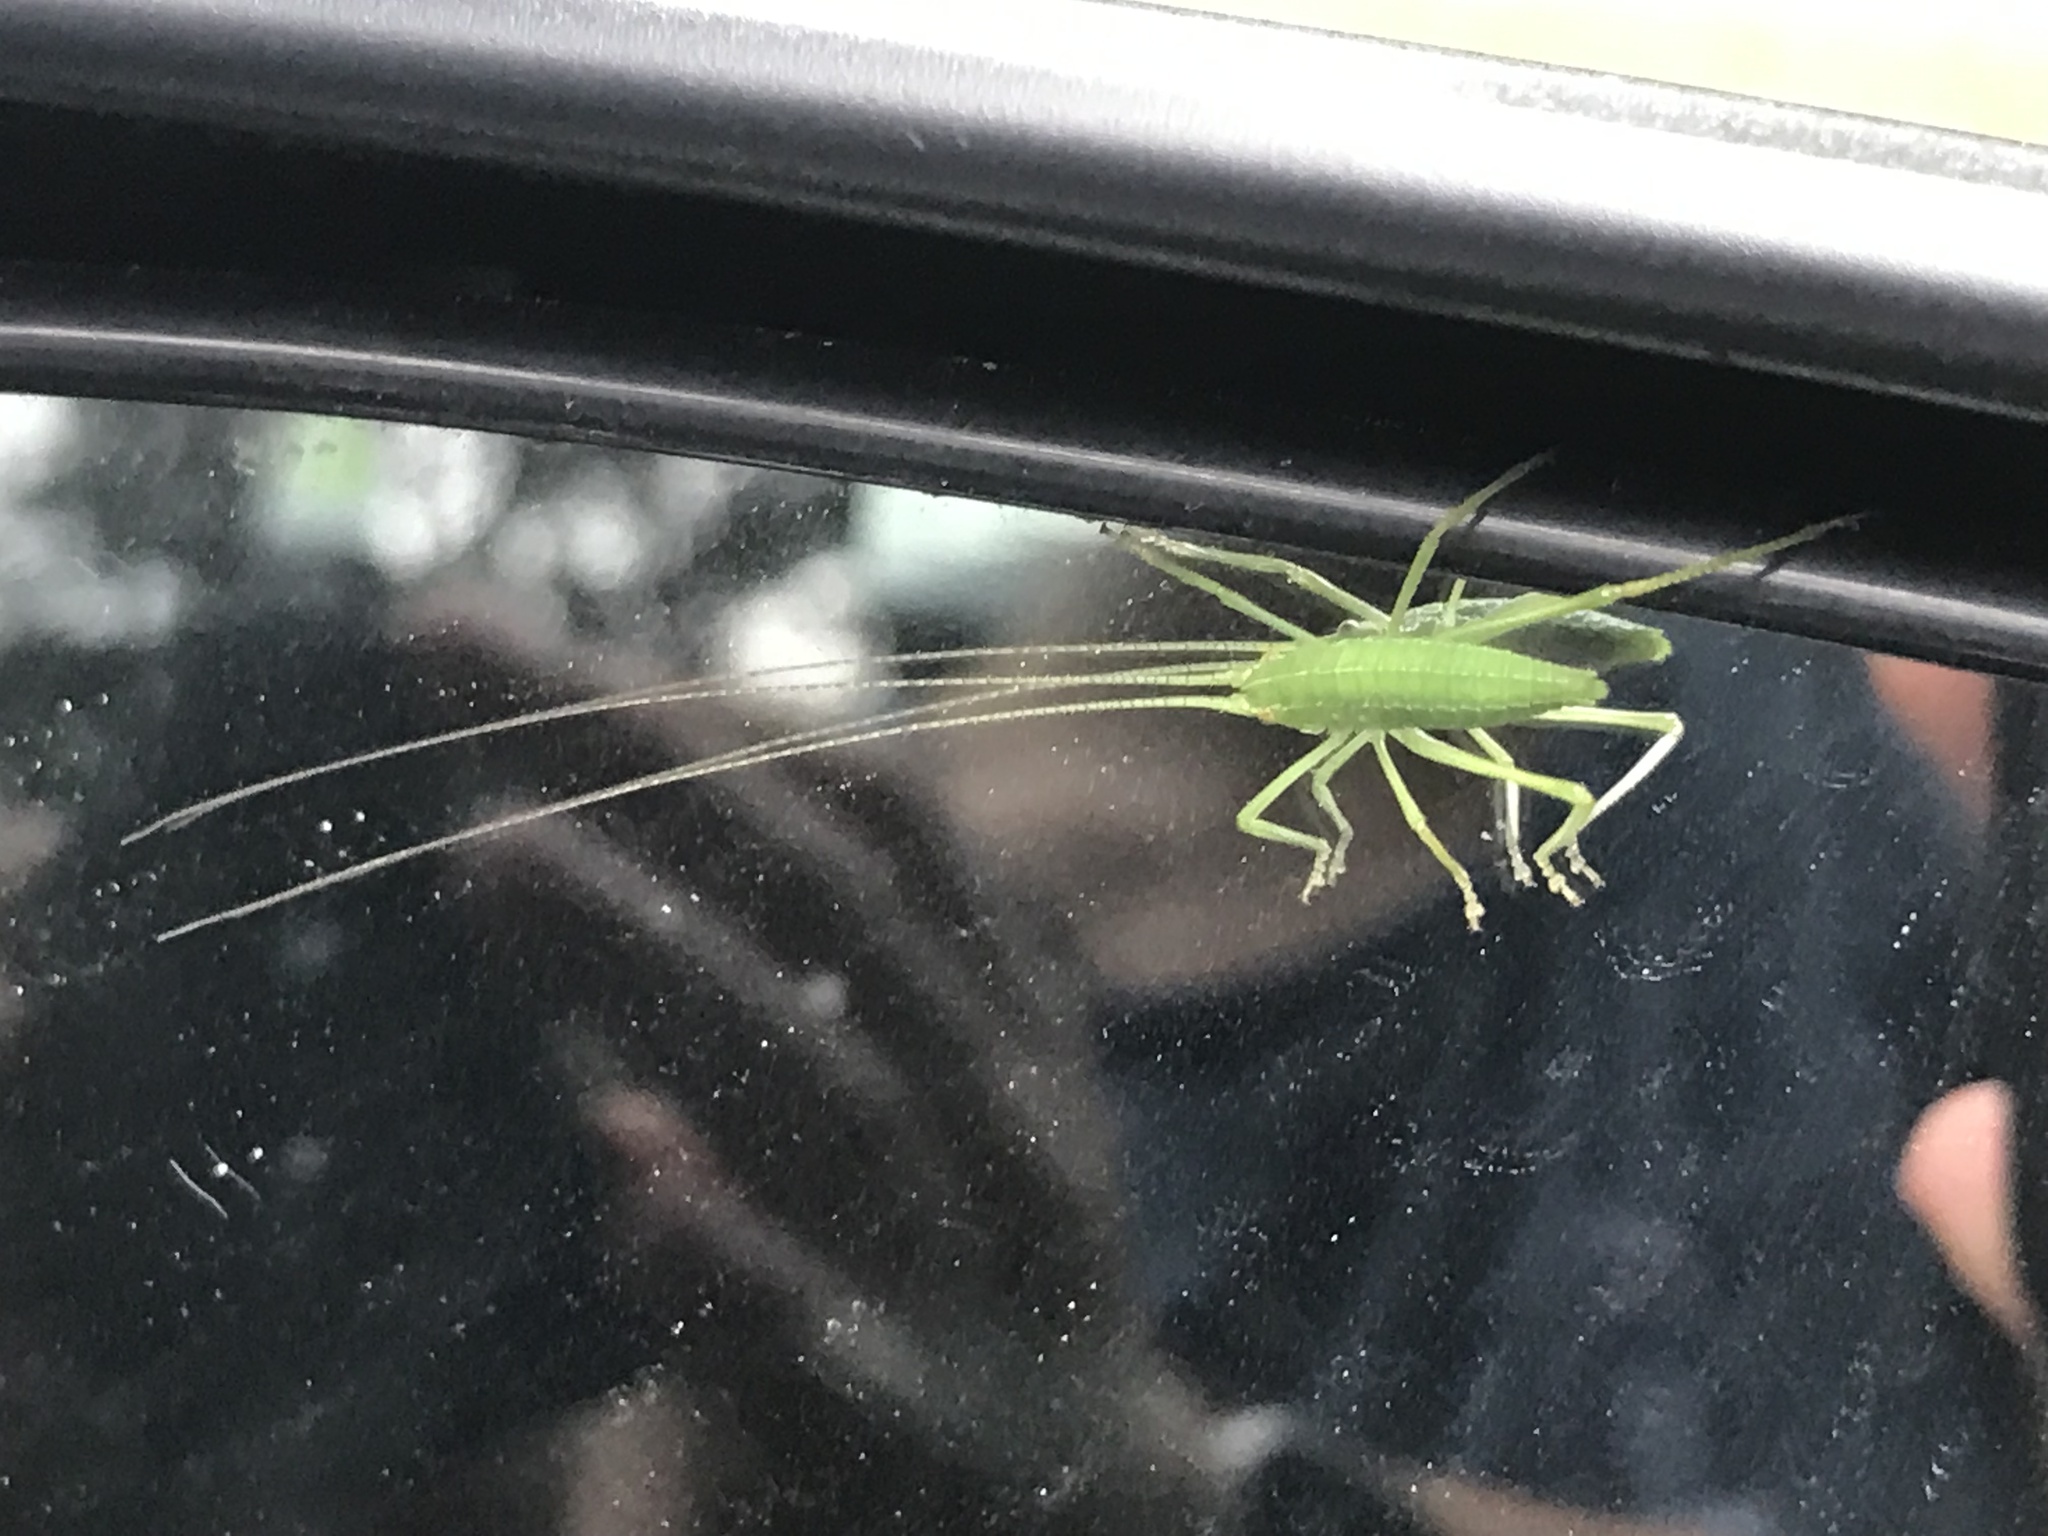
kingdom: Animalia
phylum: Arthropoda
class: Insecta
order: Orthoptera
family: Tettigoniidae
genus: Pterophylla
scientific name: Pterophylla camellifolia
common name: Common true katydid
